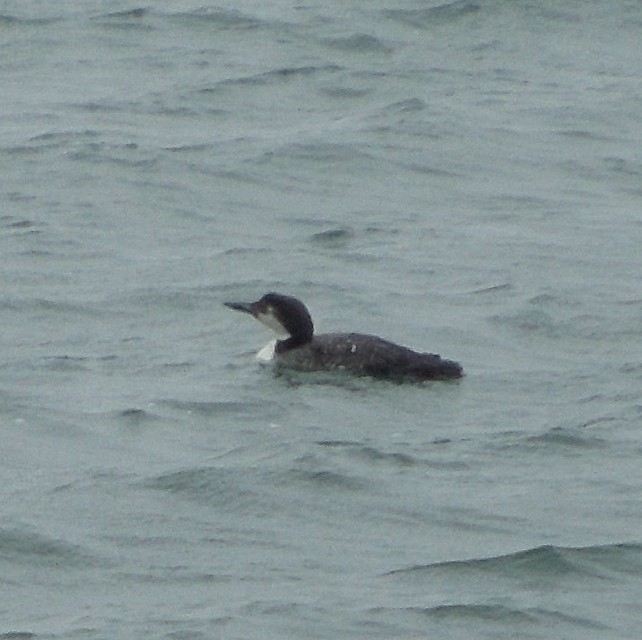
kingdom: Animalia
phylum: Chordata
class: Aves
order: Gaviiformes
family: Gaviidae
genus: Gavia
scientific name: Gavia immer
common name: Common loon
